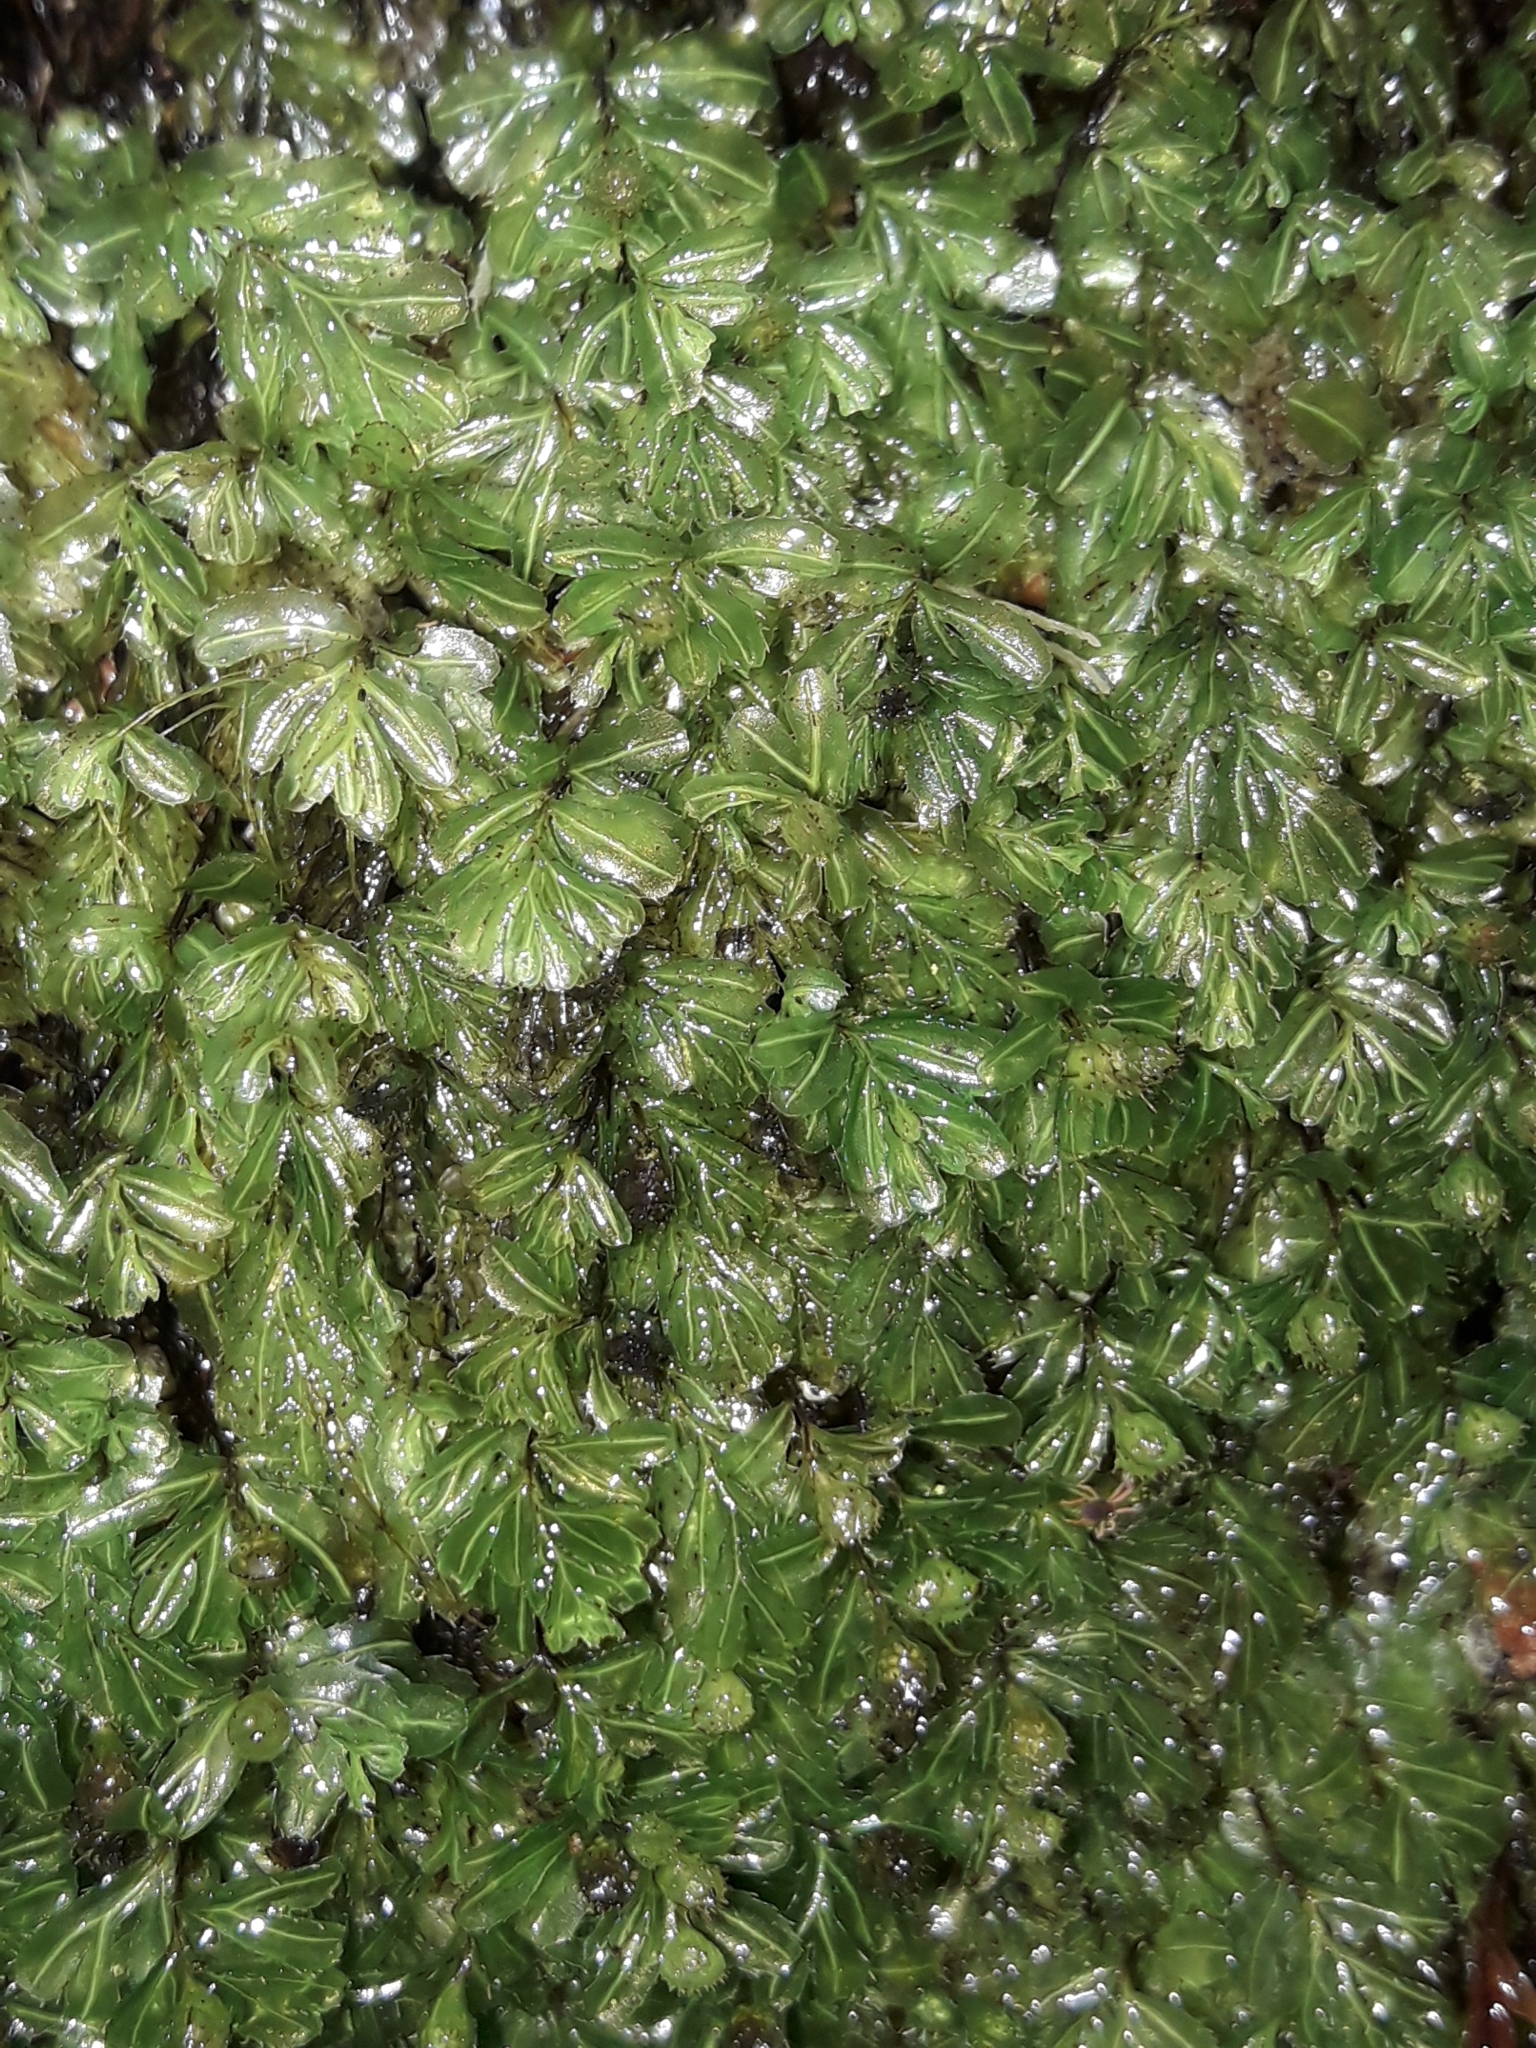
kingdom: Plantae
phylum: Tracheophyta
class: Polypodiopsida
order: Hymenophyllales
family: Hymenophyllaceae
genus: Hymenophyllum
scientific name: Hymenophyllum minimum
